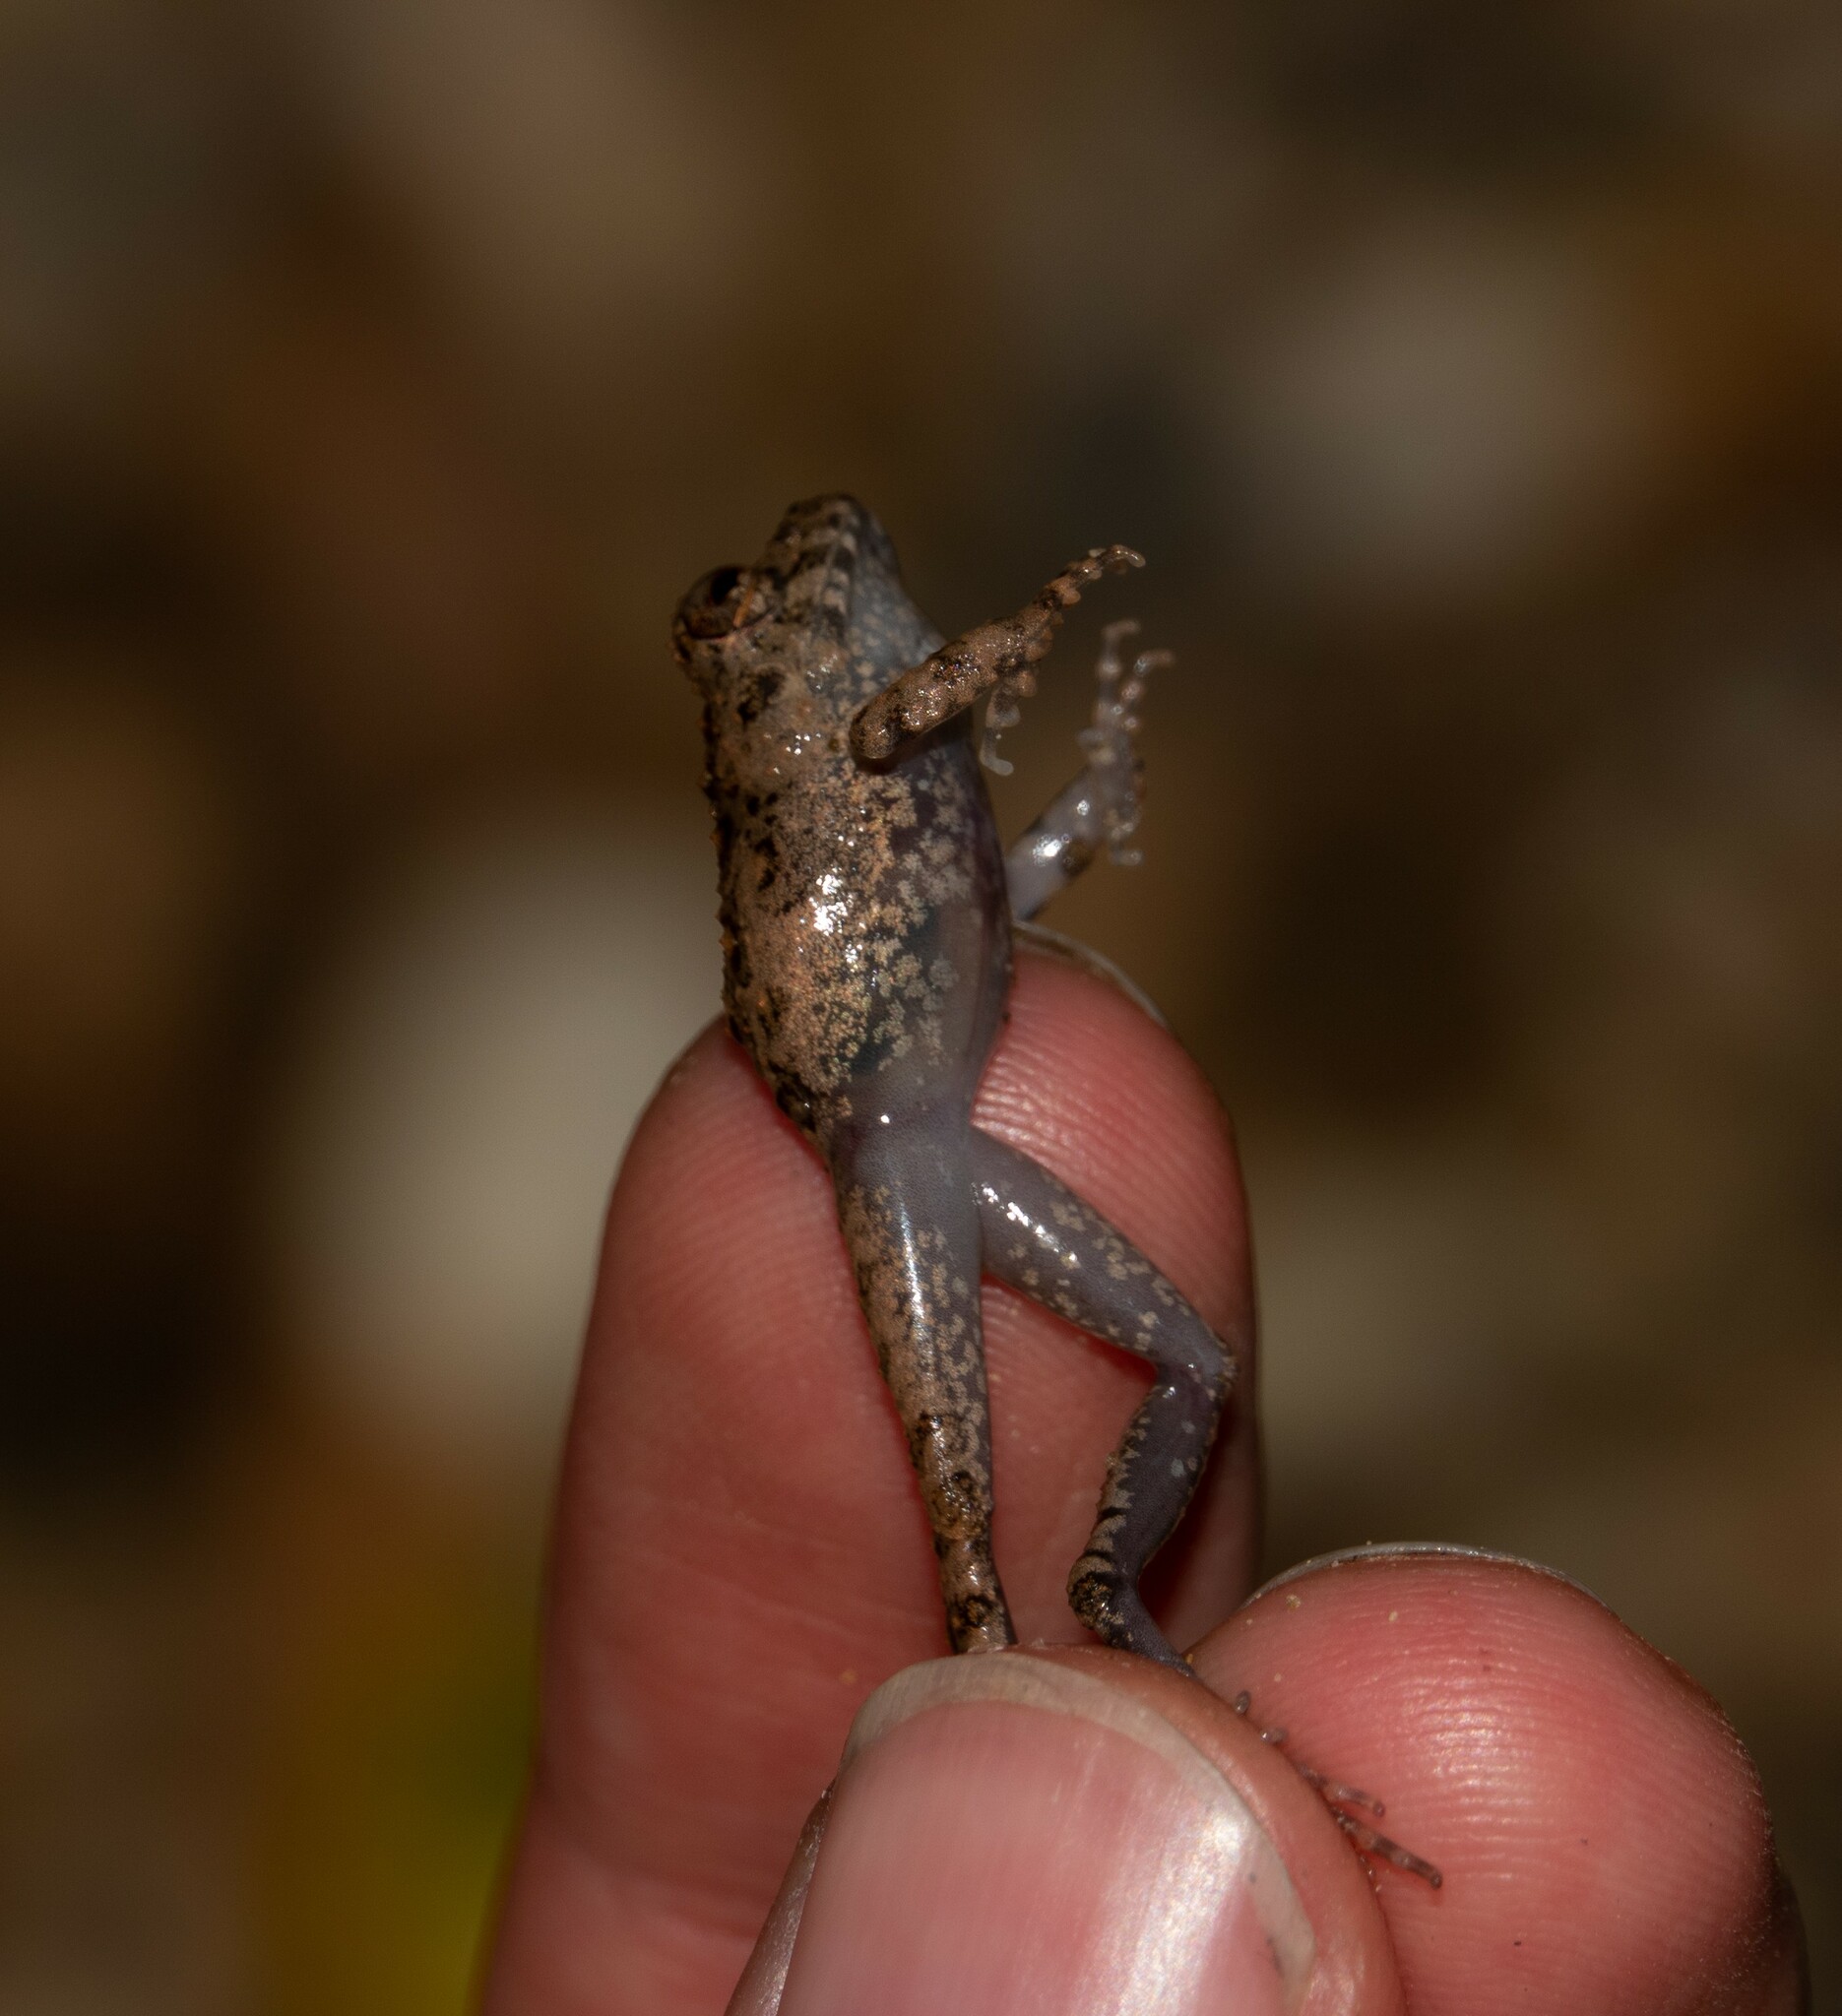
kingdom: Animalia
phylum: Chordata
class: Amphibia
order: Anura
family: Craugastoridae
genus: Oreobates
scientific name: Oreobates quixensis
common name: Common big-headed frog
